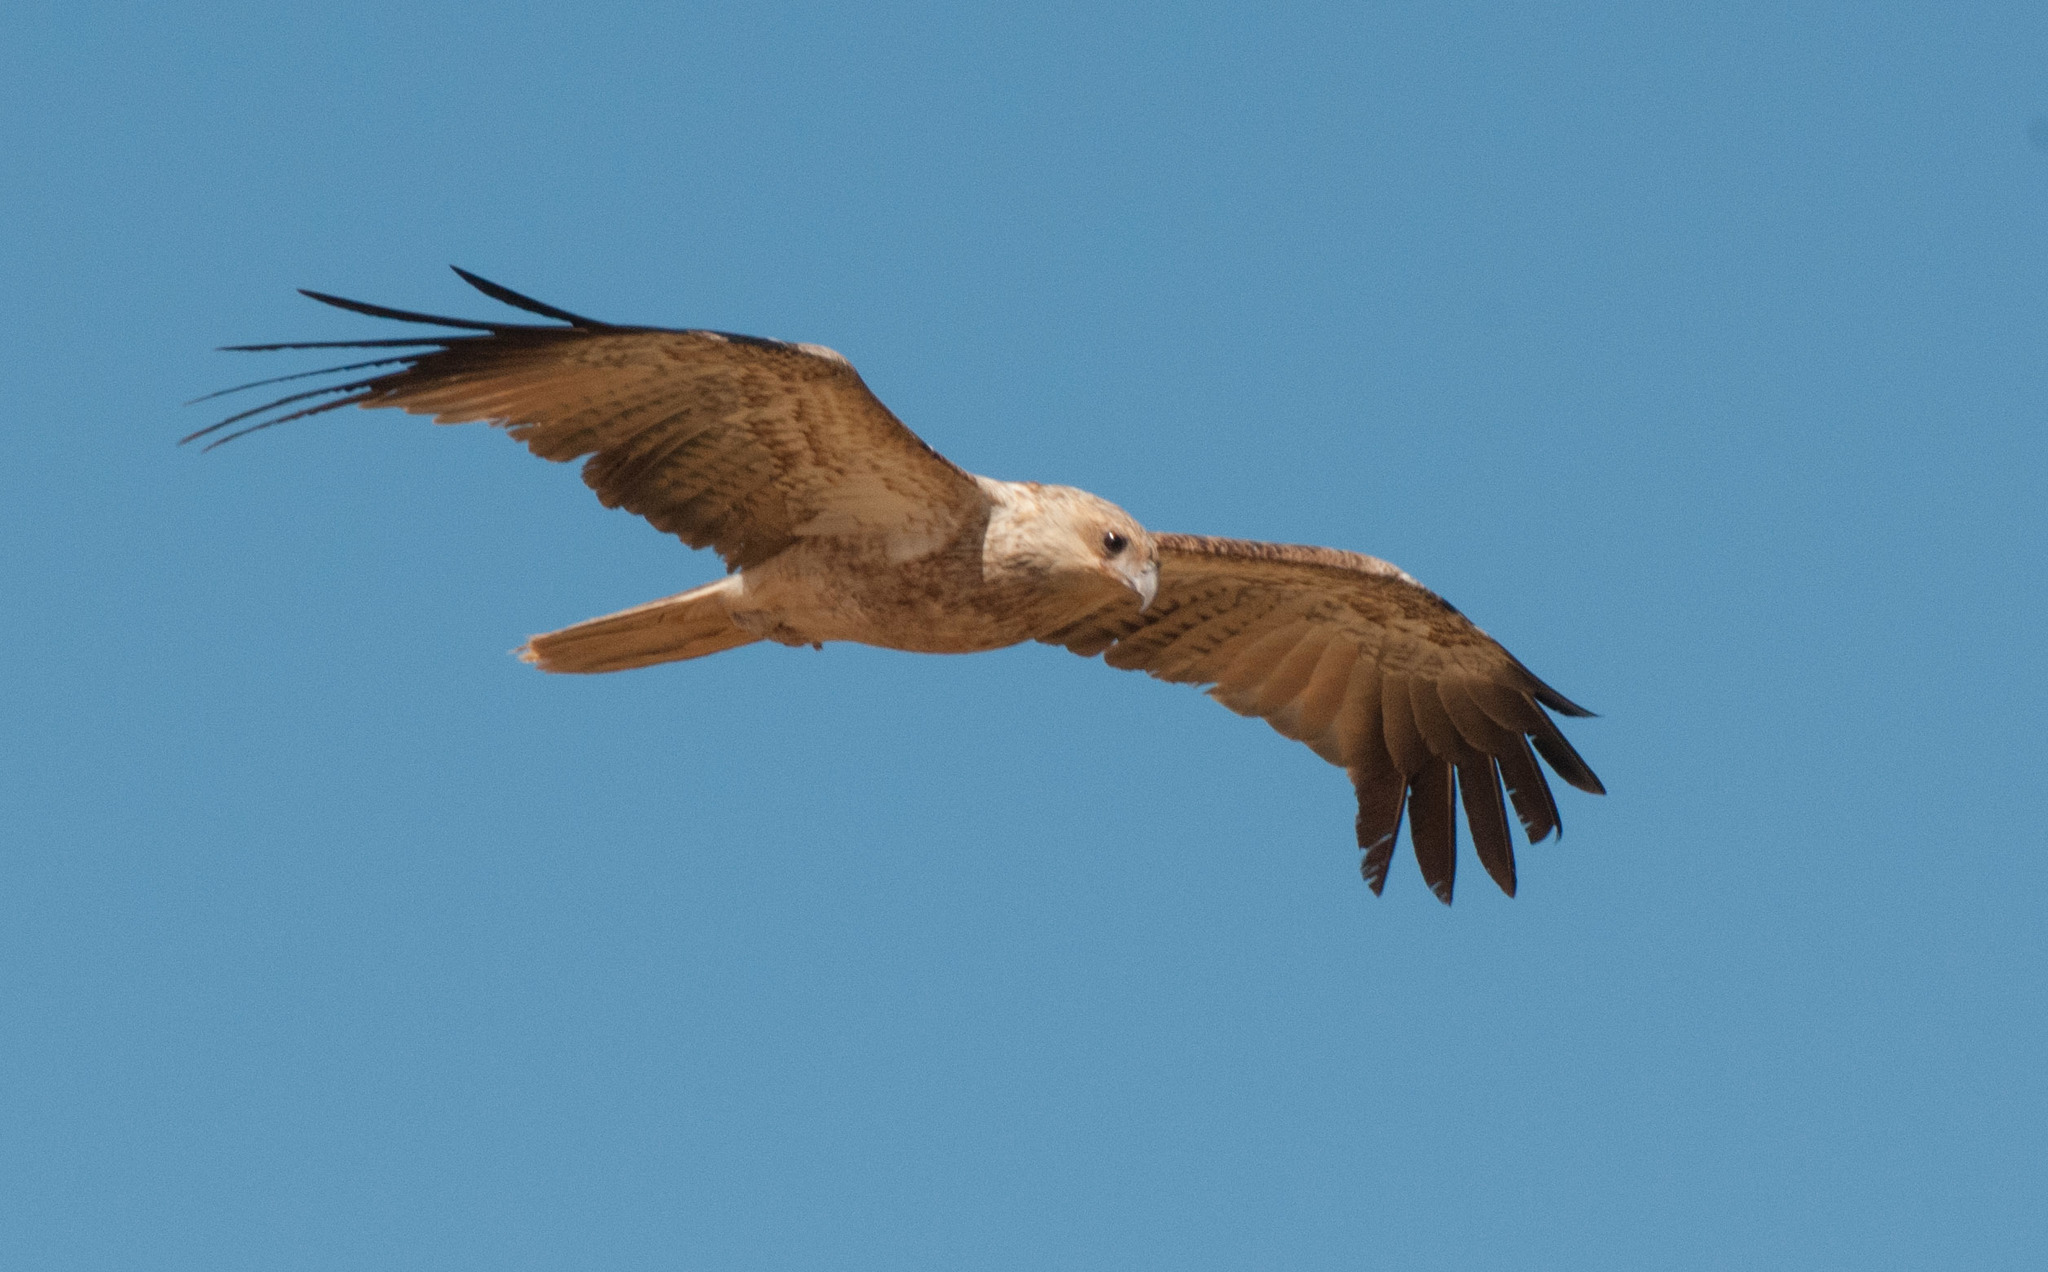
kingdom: Animalia
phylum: Chordata
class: Aves
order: Accipitriformes
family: Accipitridae
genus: Haliastur
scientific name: Haliastur sphenurus
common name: Whistling kite
